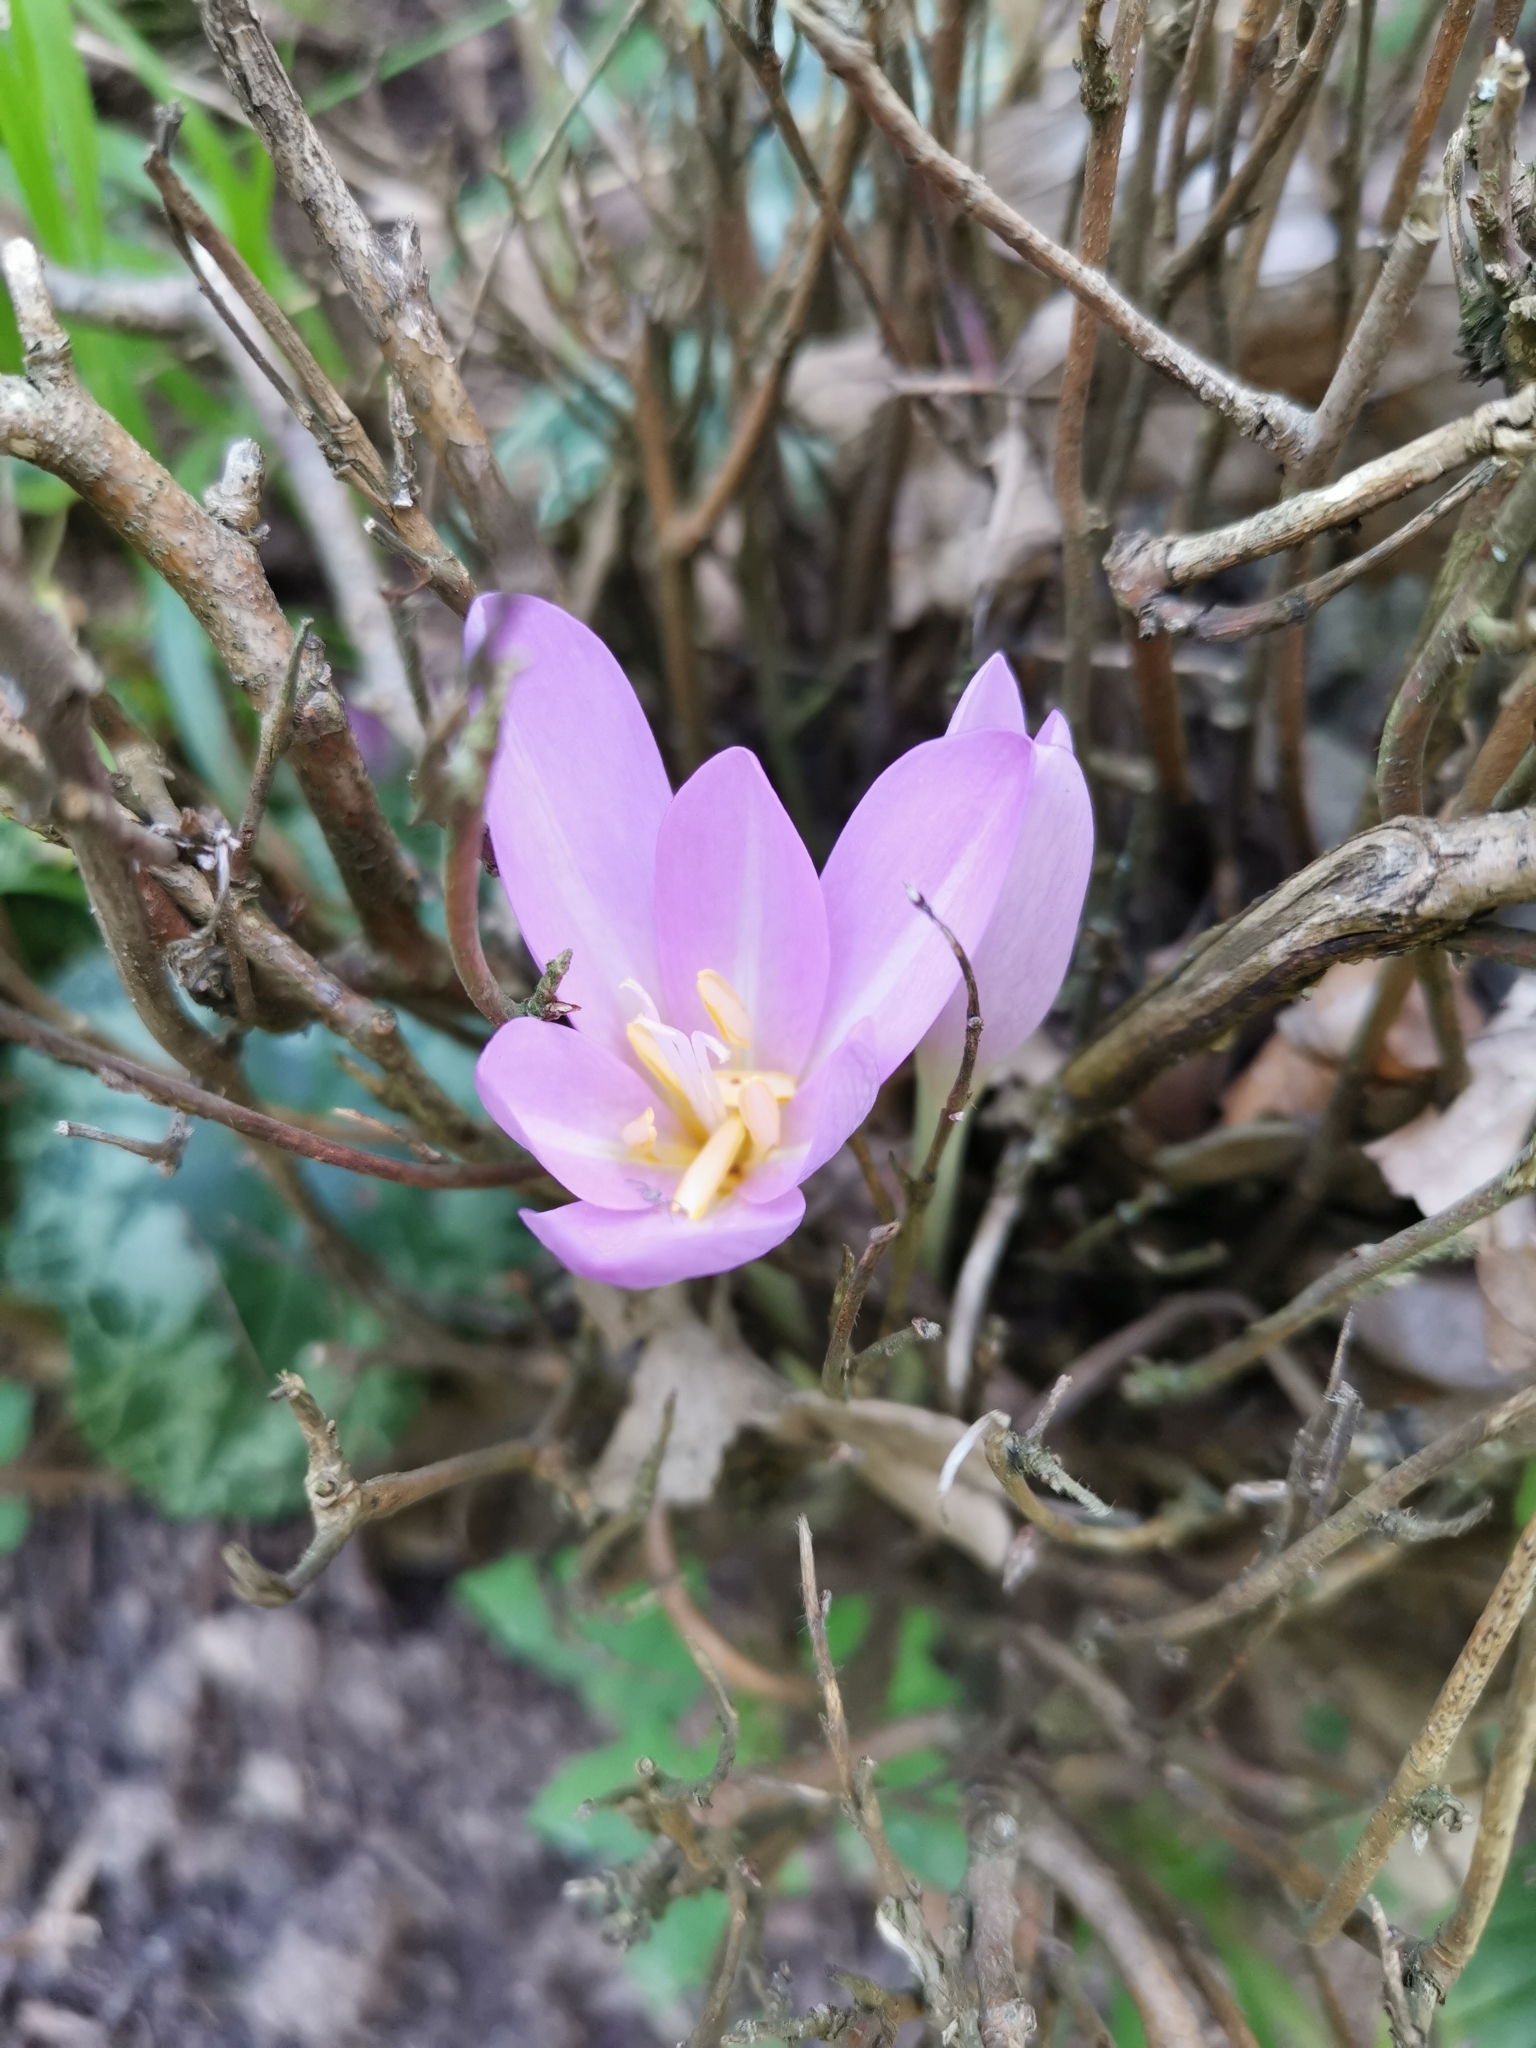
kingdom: Plantae
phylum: Tracheophyta
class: Liliopsida
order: Liliales
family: Colchicaceae
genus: Colchicum
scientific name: Colchicum autumnale
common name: Autumn crocus
